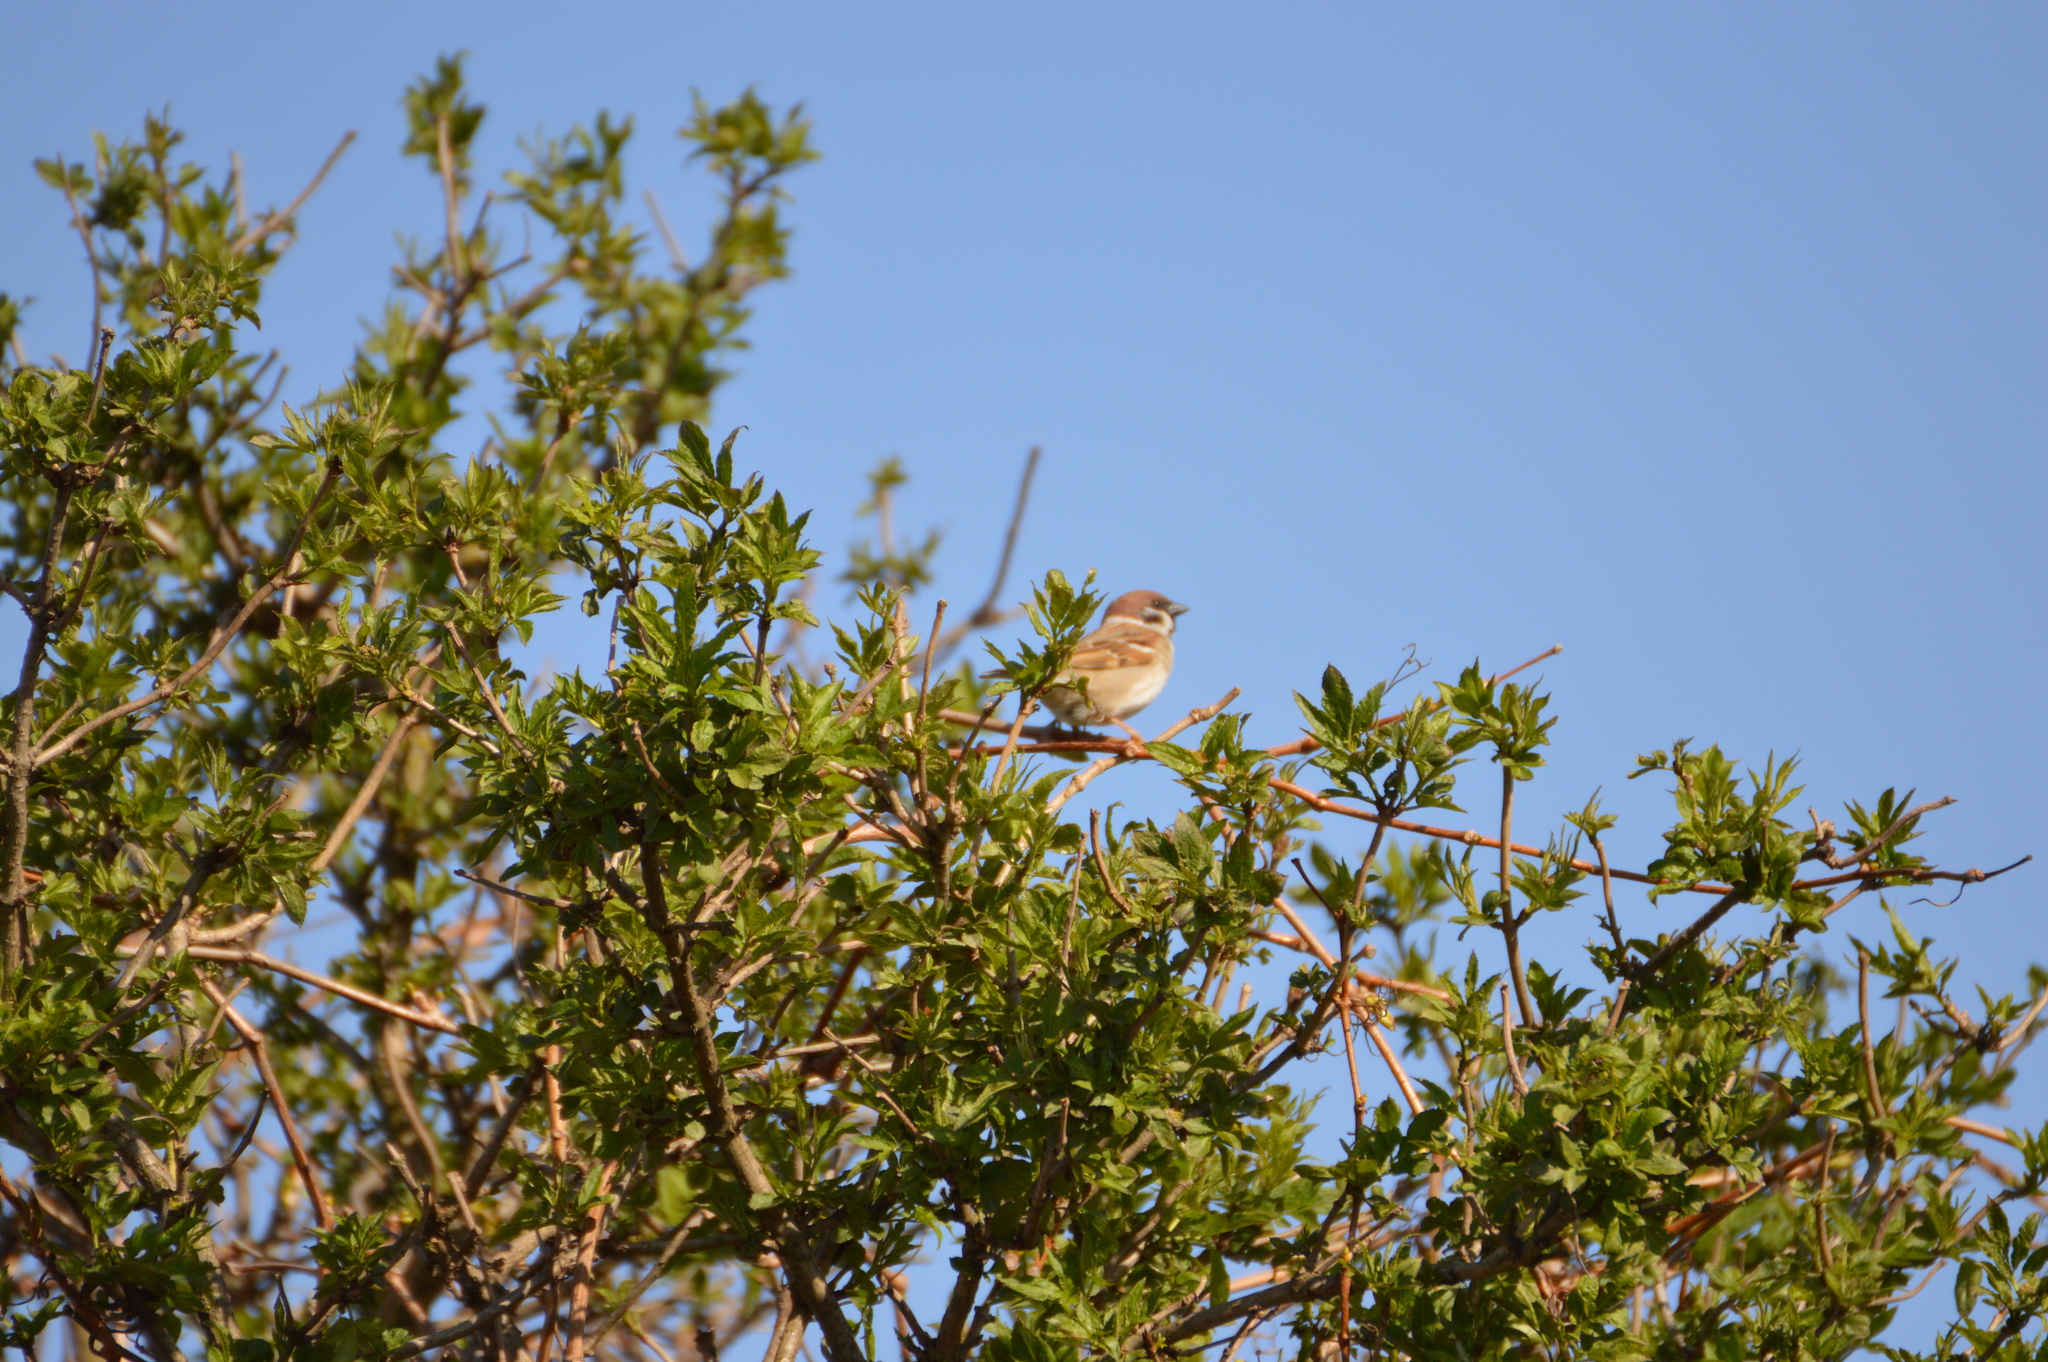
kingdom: Animalia
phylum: Chordata
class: Aves
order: Passeriformes
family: Passeridae
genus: Passer
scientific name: Passer montanus
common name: Eurasian tree sparrow
